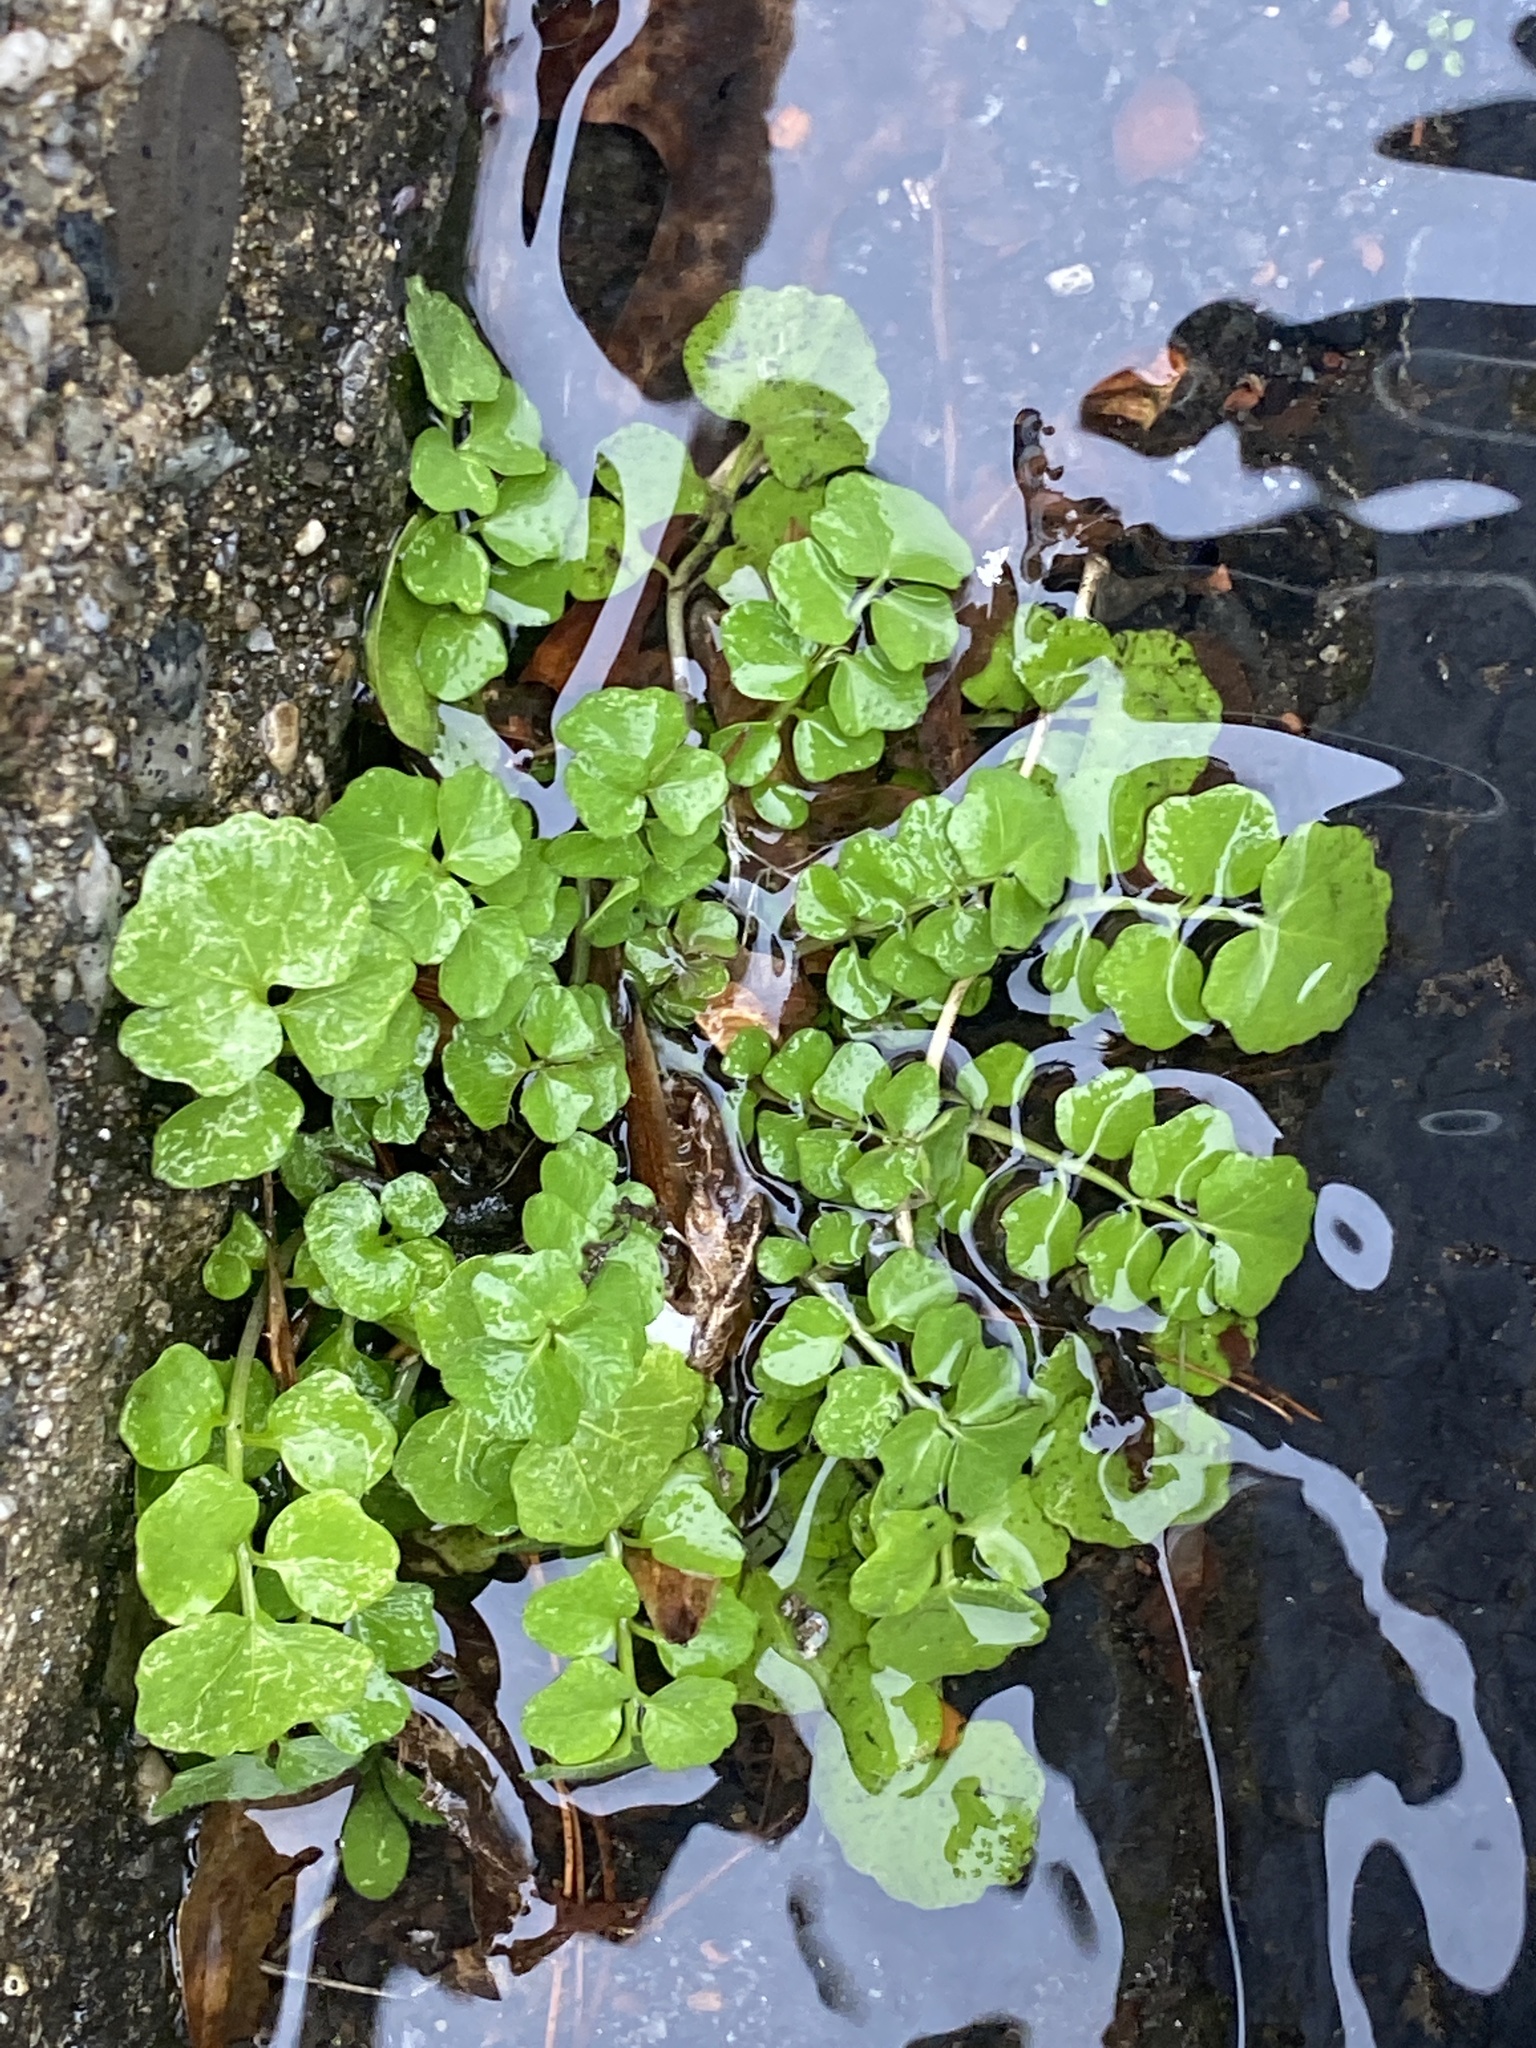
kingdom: Plantae
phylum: Tracheophyta
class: Magnoliopsida
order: Brassicales
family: Brassicaceae
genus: Cardamine
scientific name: Cardamine hirsuta
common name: Hairy bittercress
